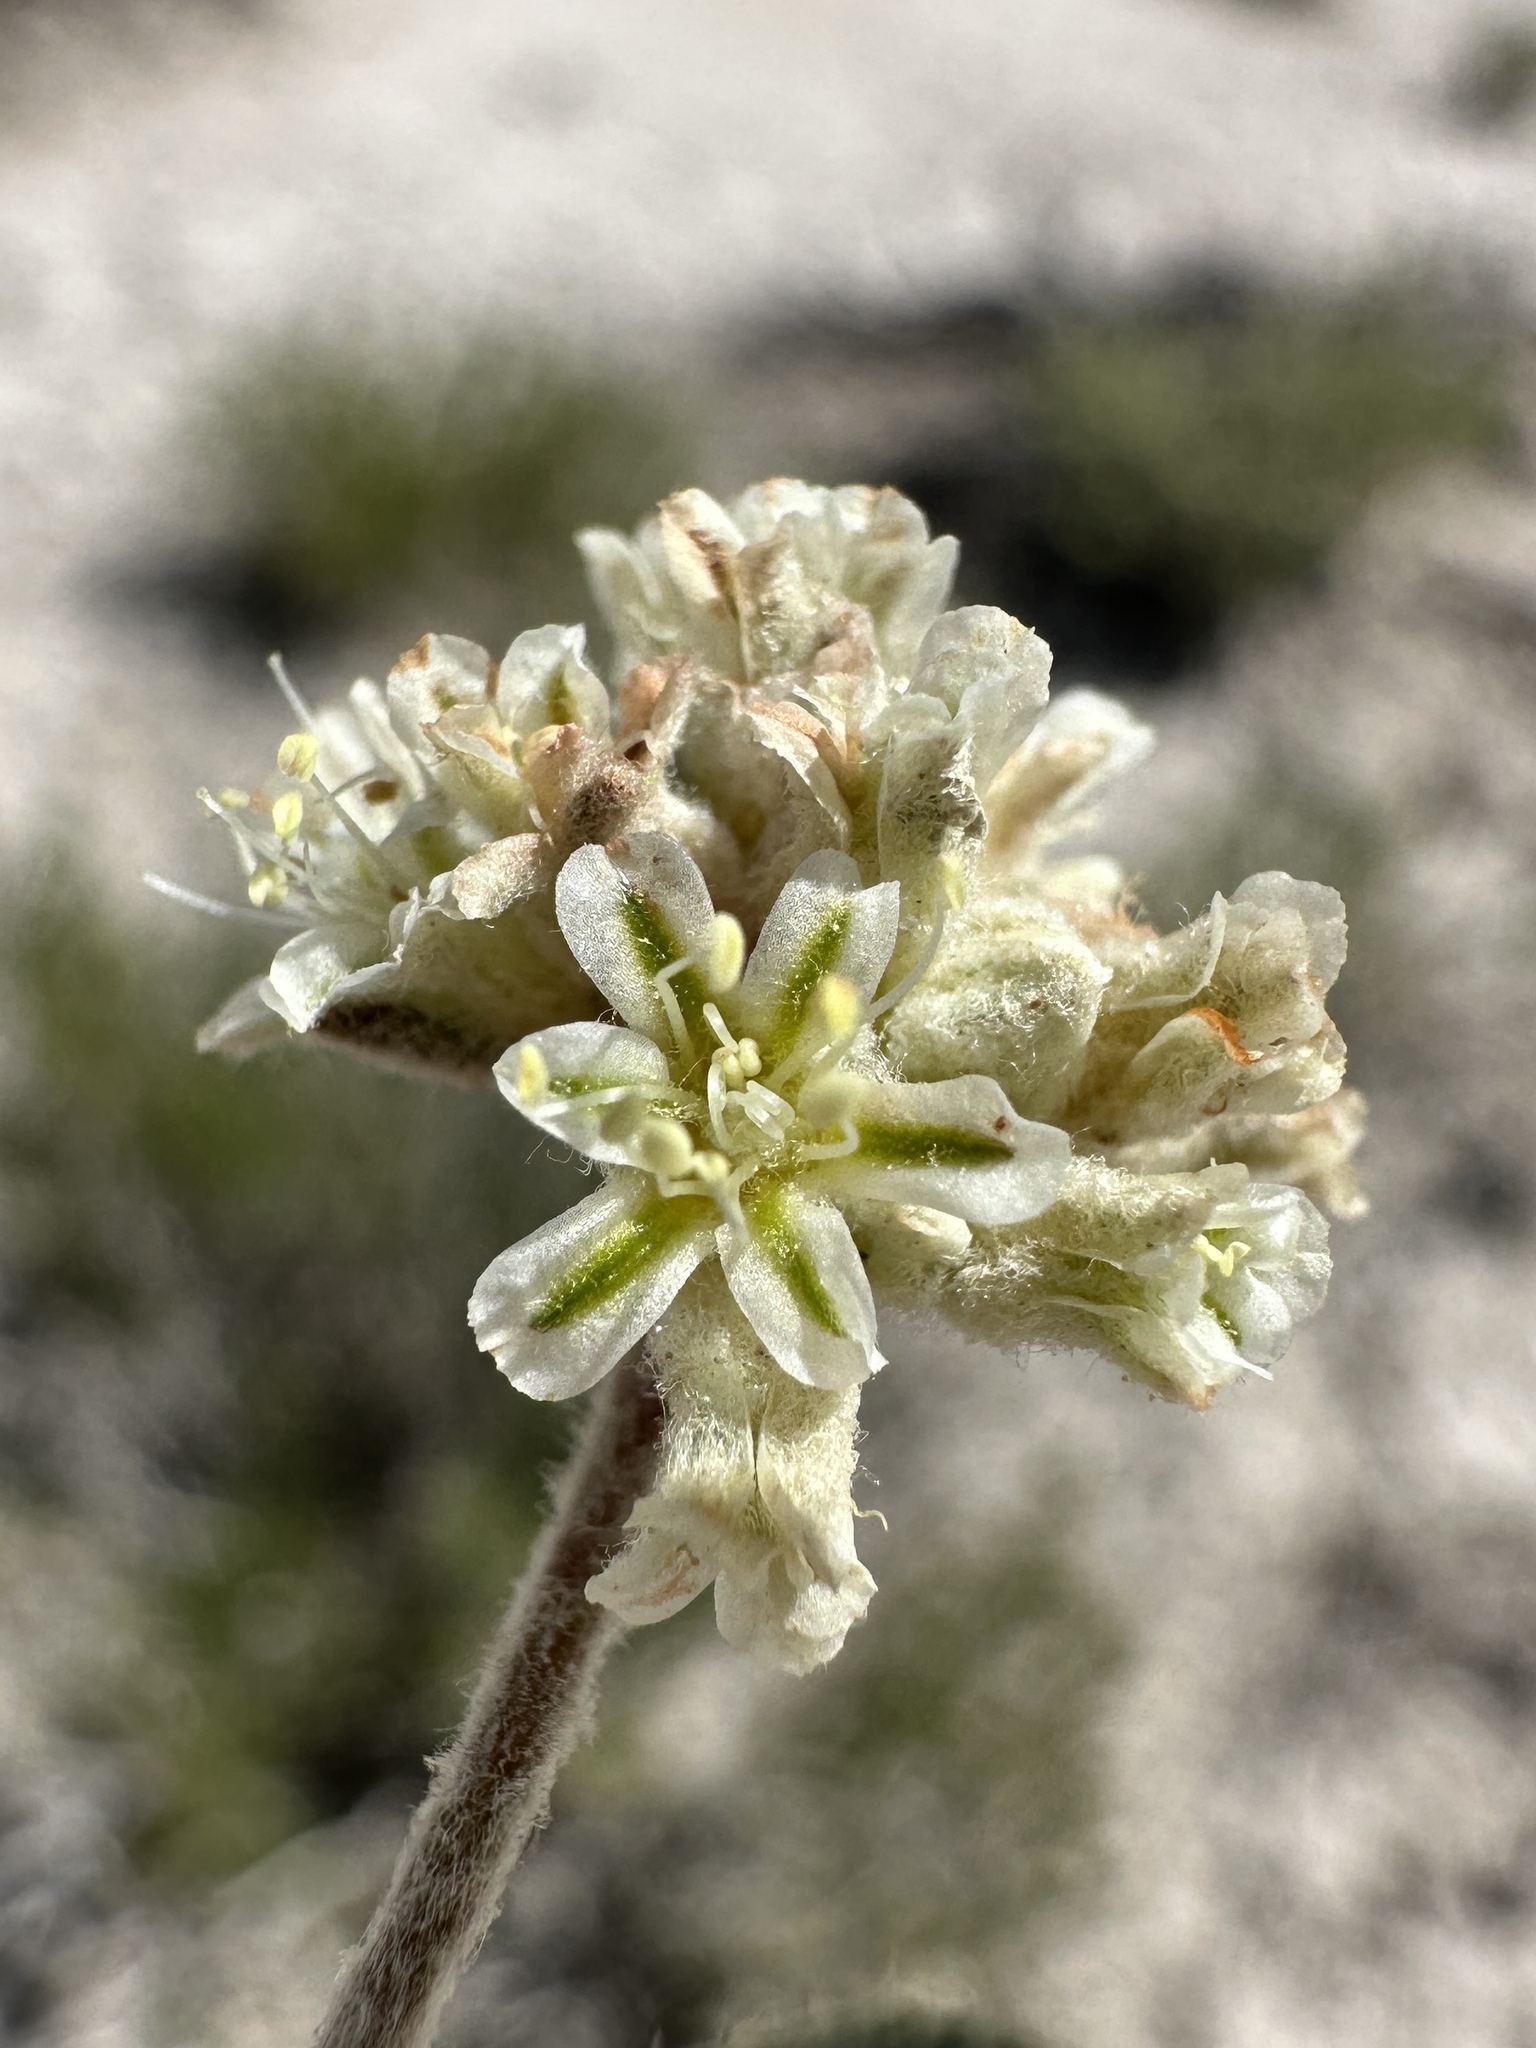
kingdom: Plantae
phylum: Tracheophyta
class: Magnoliopsida
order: Caryophyllales
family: Polygonaceae
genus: Eriogonum
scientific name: Eriogonum shockleyi
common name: Shockley's wild buckwheat
